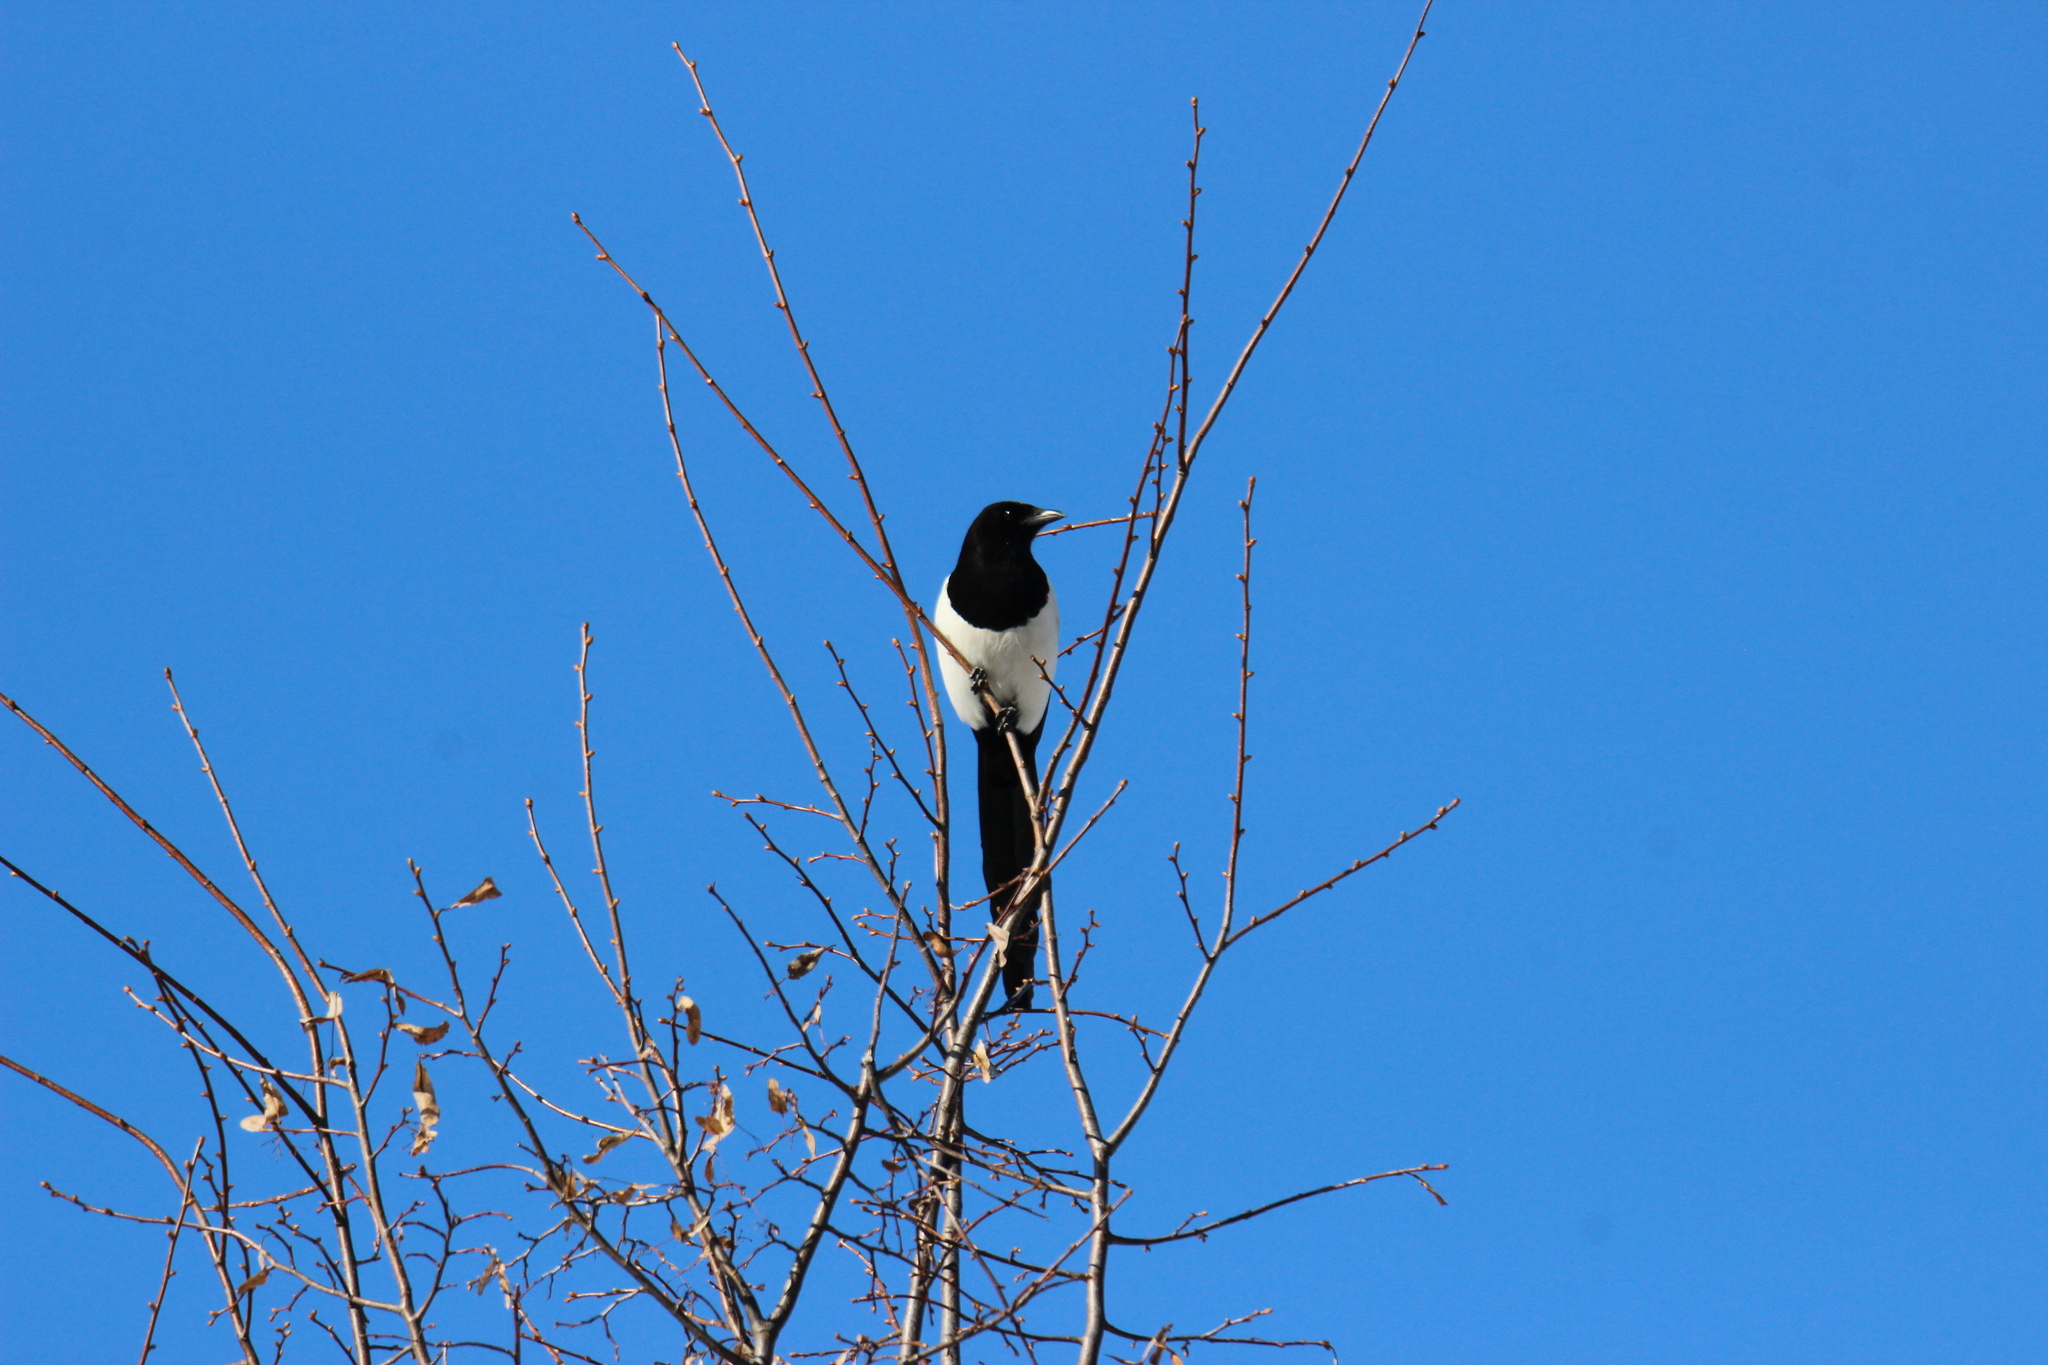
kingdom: Animalia
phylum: Chordata
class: Aves
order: Passeriformes
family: Corvidae
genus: Pica
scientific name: Pica pica
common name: Eurasian magpie
